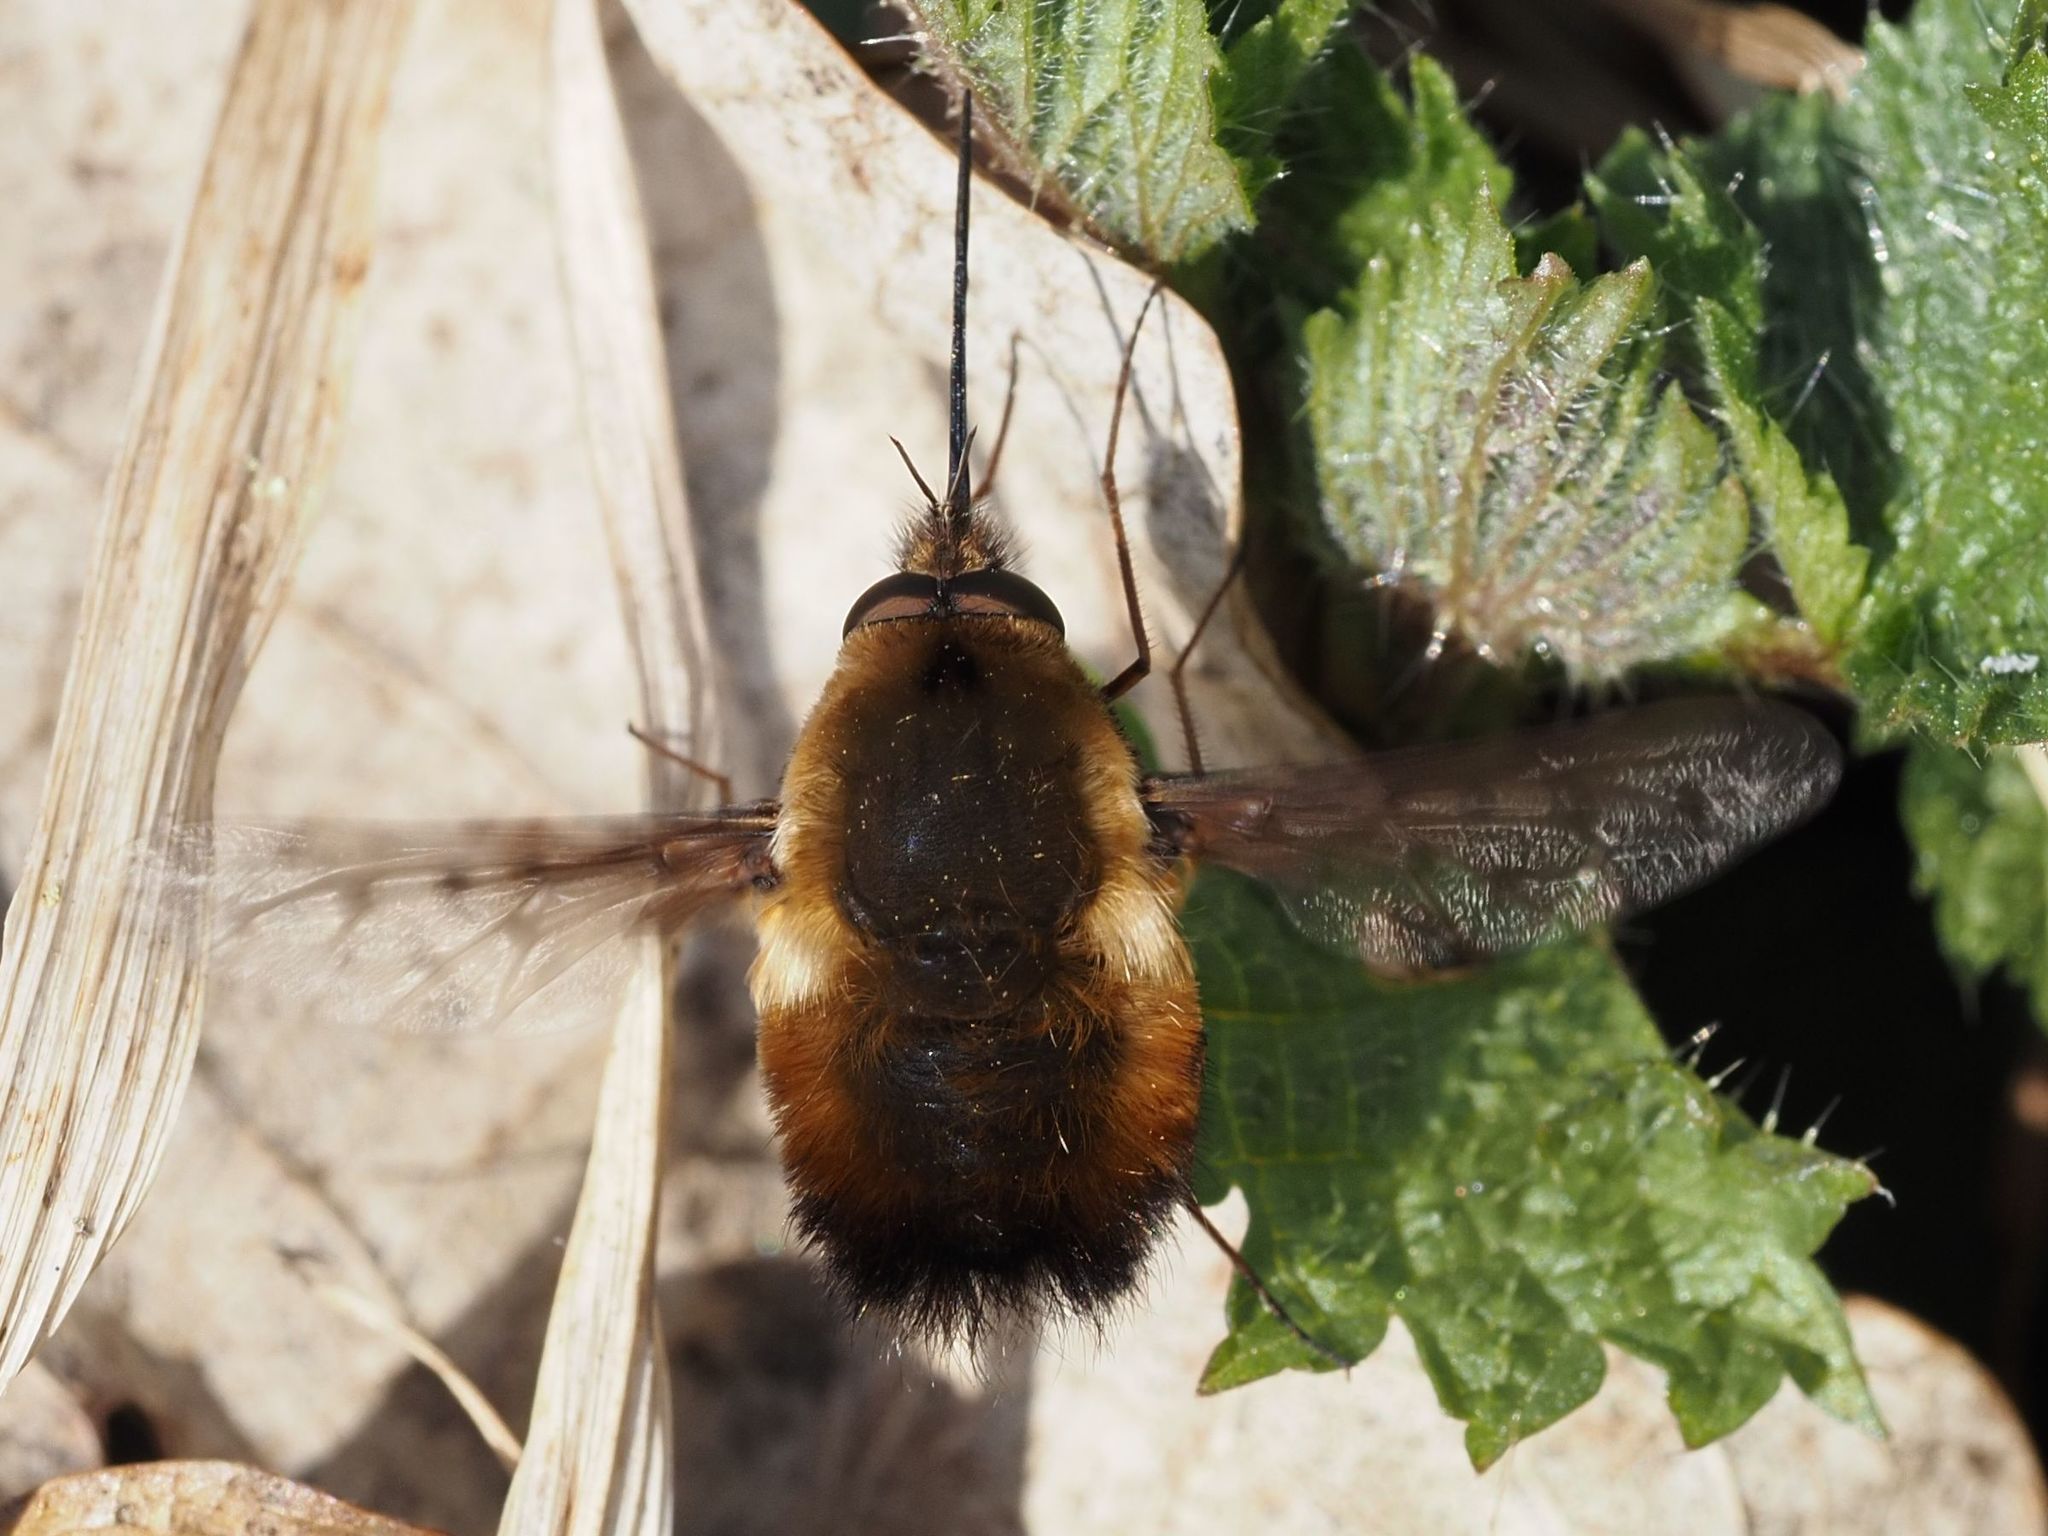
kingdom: Animalia
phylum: Arthropoda
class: Insecta
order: Diptera
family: Bombyliidae
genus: Bombylius
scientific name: Bombylius discolor
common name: Dotted bee-fly
